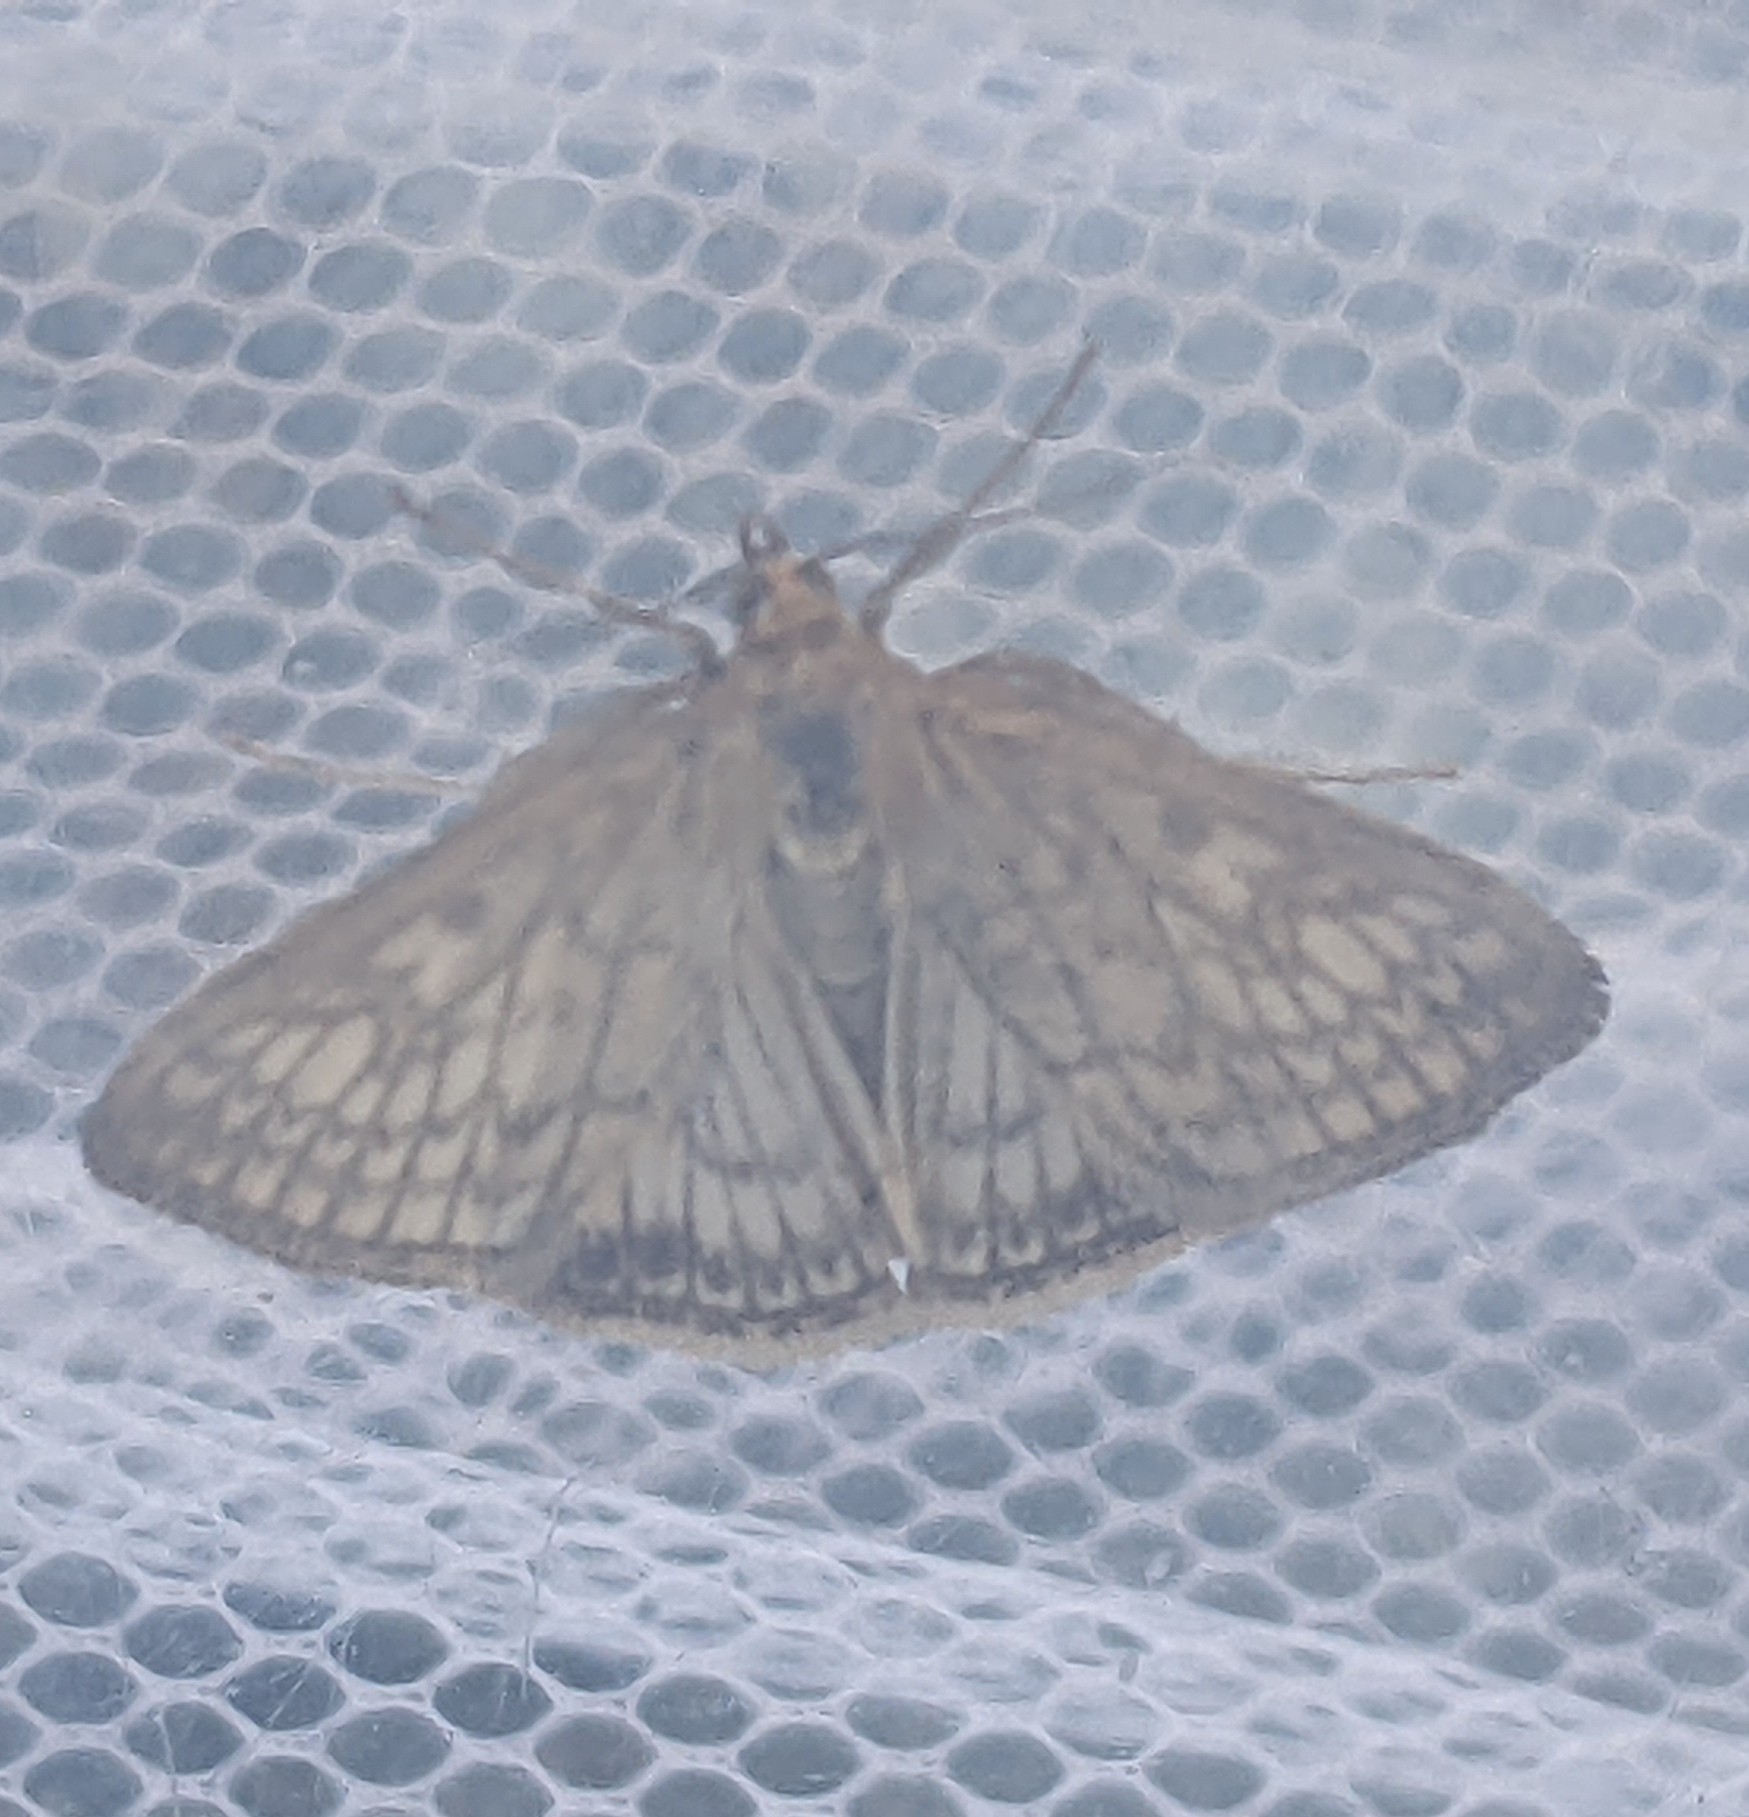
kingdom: Animalia
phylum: Arthropoda
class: Insecta
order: Lepidoptera
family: Crambidae
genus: Sitochroa
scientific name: Sitochroa chortalis
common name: Dimorphic sitochroa moth
